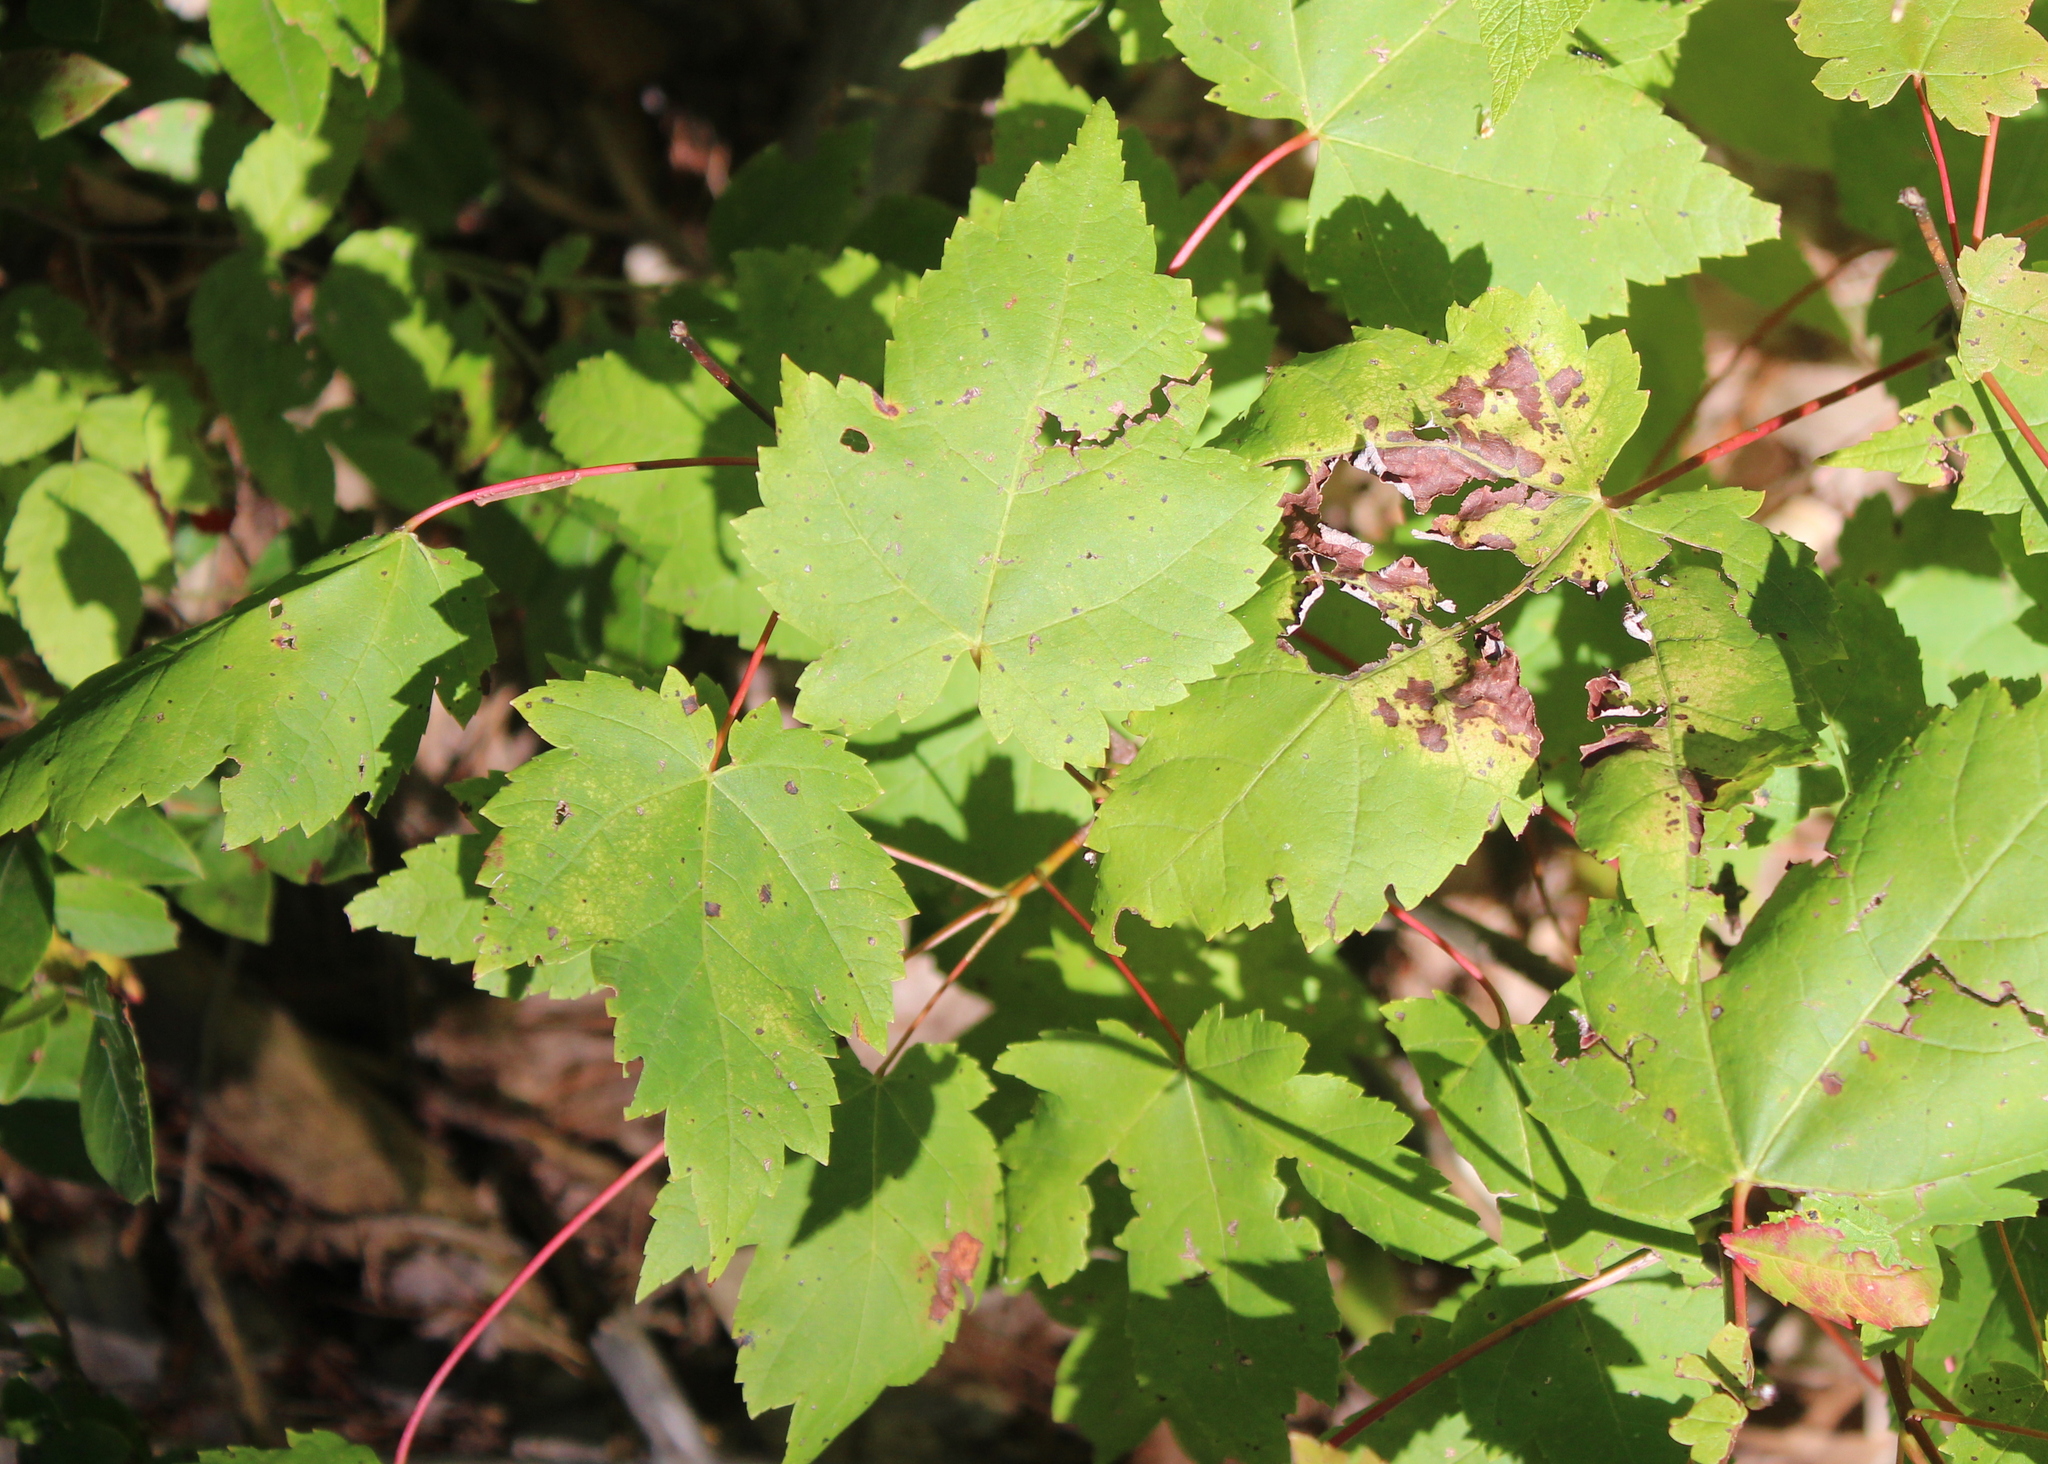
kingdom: Plantae
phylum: Tracheophyta
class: Magnoliopsida
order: Sapindales
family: Sapindaceae
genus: Acer
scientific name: Acer rubrum
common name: Red maple
